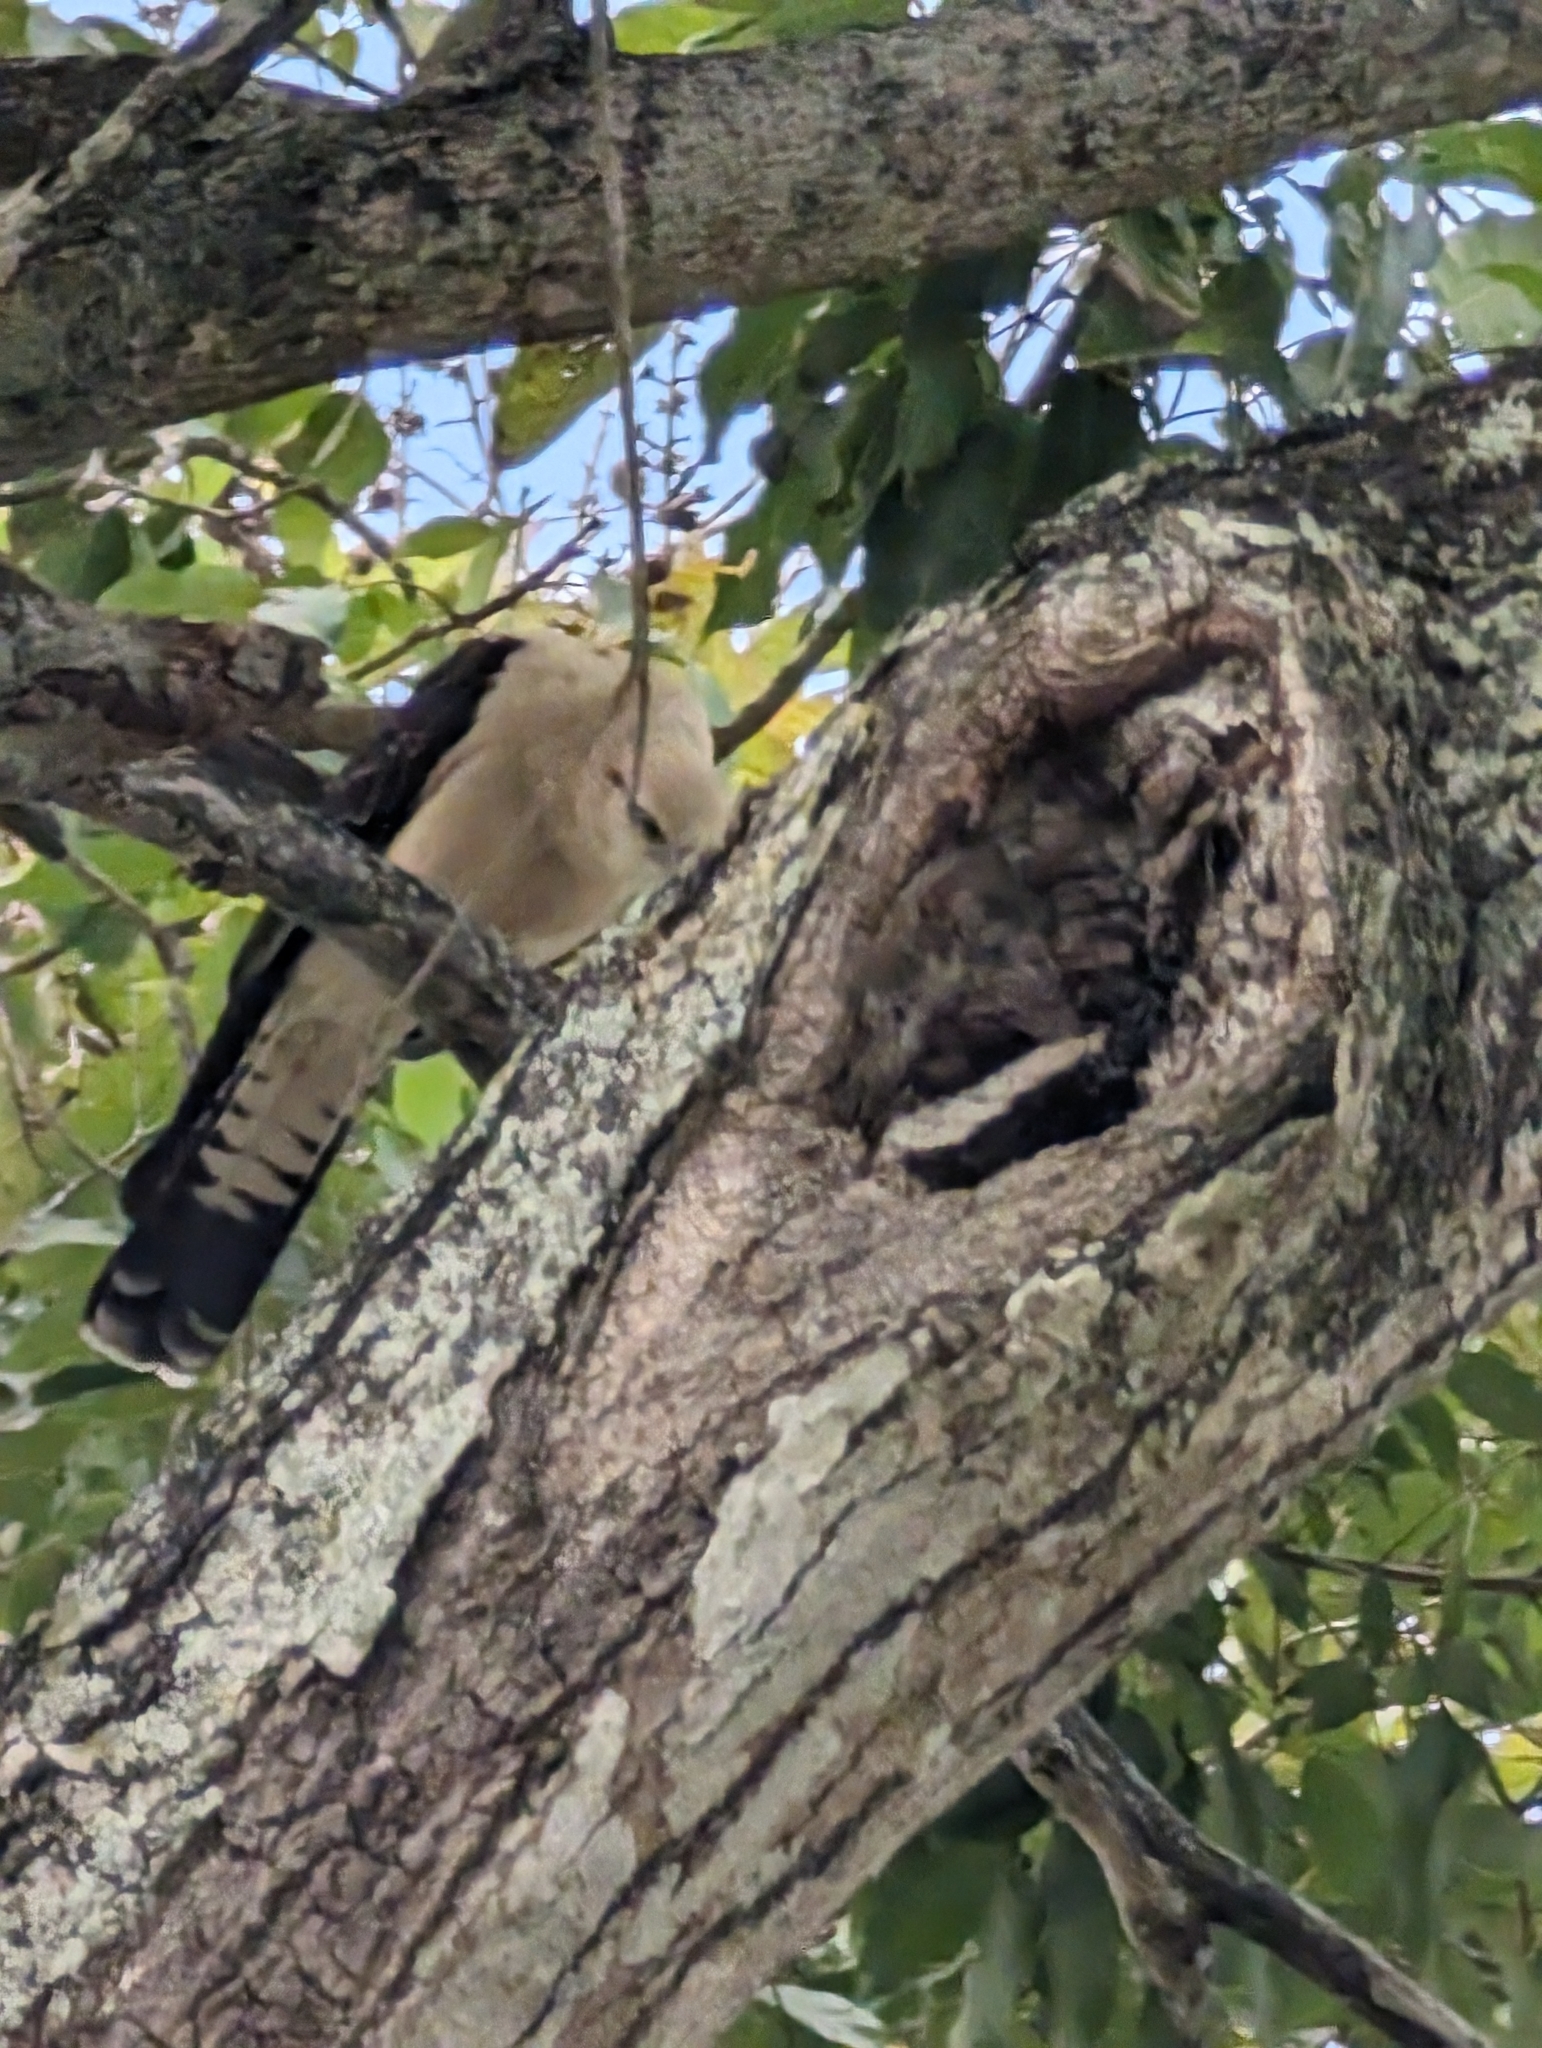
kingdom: Animalia
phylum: Chordata
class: Aves
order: Falconiformes
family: Falconidae
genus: Daptrius
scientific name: Daptrius
